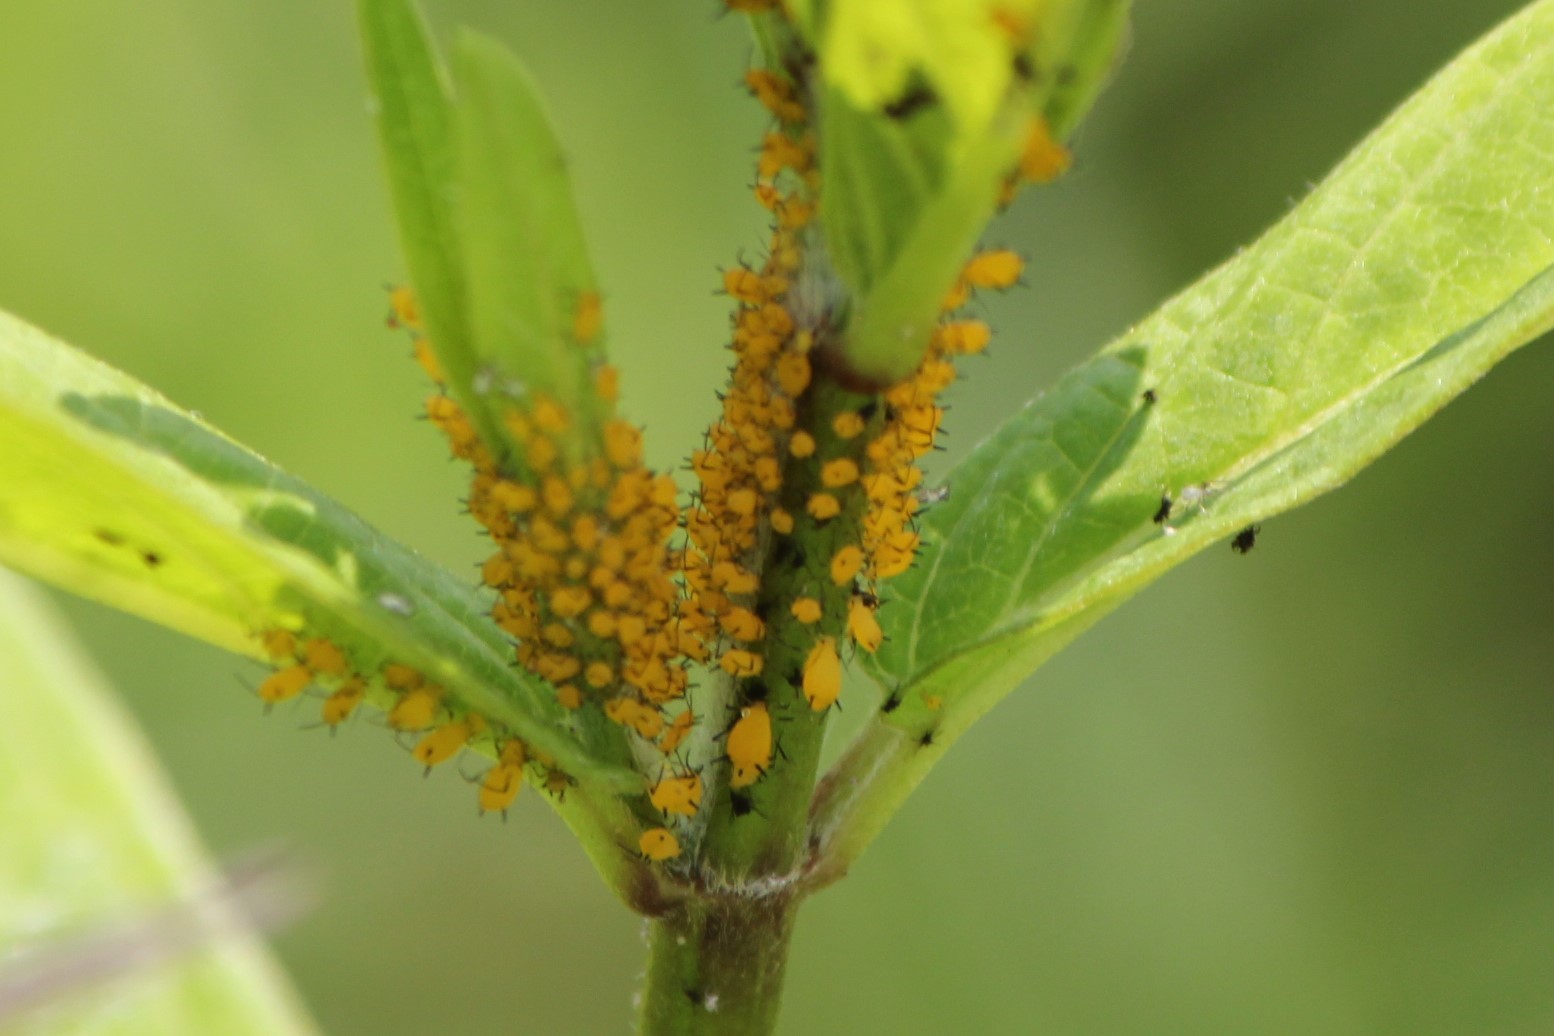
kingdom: Animalia
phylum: Arthropoda
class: Insecta
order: Hemiptera
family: Aphididae
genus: Aphis
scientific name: Aphis nerii
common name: Oleander aphid
